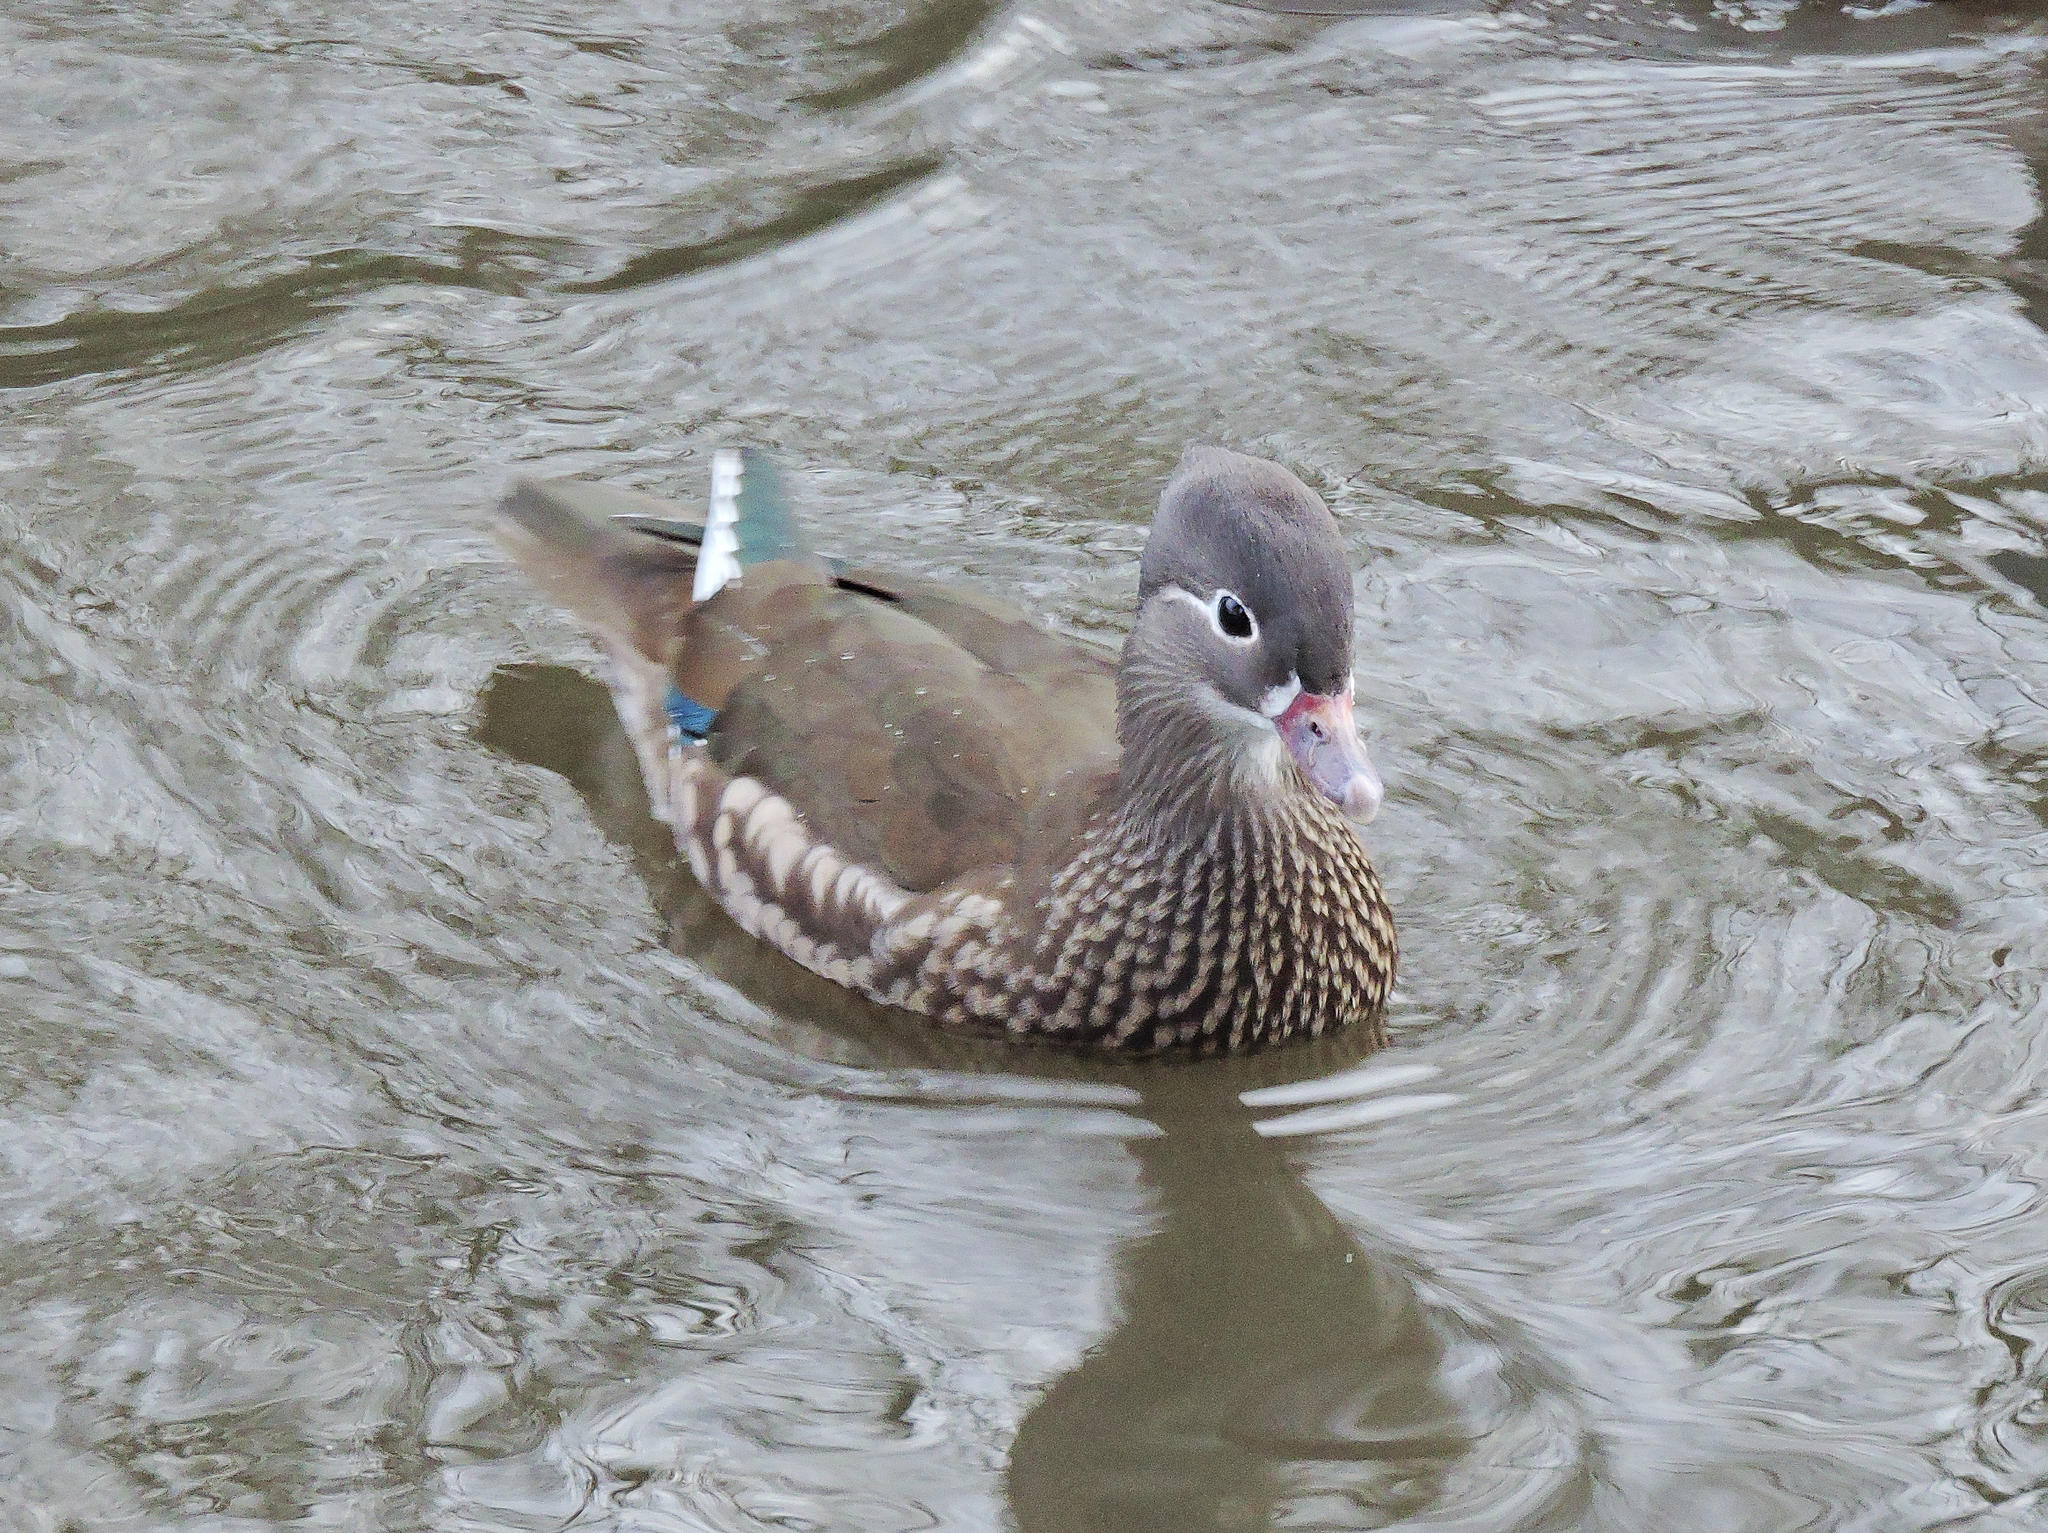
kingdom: Animalia
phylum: Chordata
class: Aves
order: Anseriformes
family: Anatidae
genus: Aix
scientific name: Aix galericulata
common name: Mandarin duck
